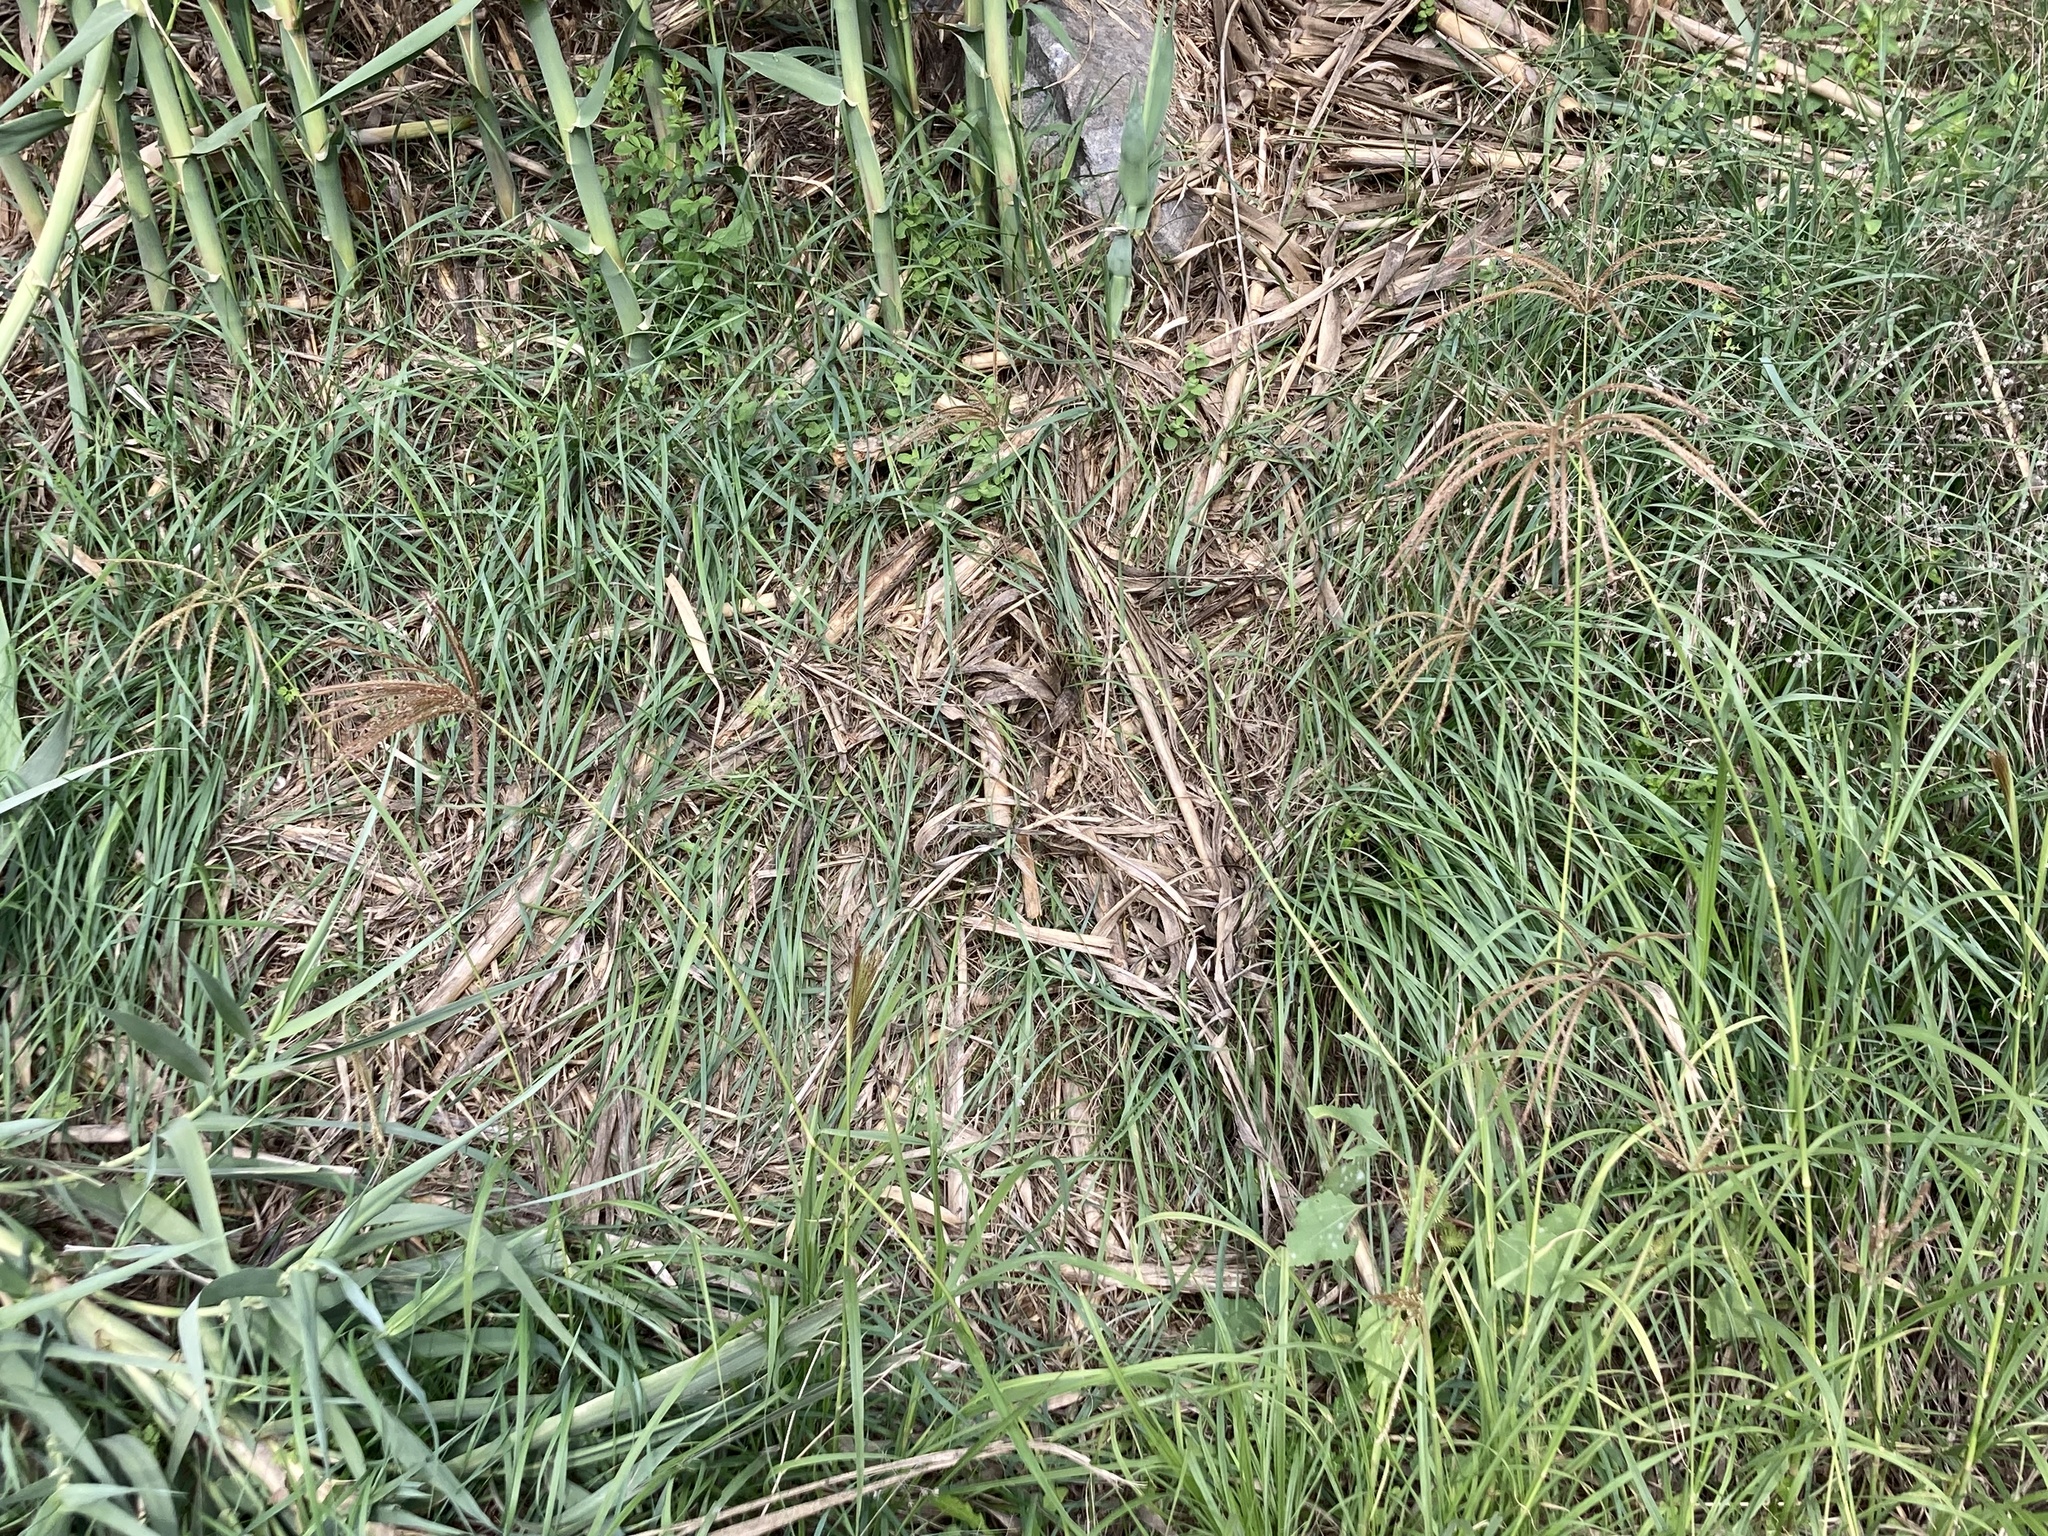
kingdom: Plantae
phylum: Tracheophyta
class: Liliopsida
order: Poales
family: Poaceae
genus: Chloris
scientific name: Chloris gayana
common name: Rhodes grass
